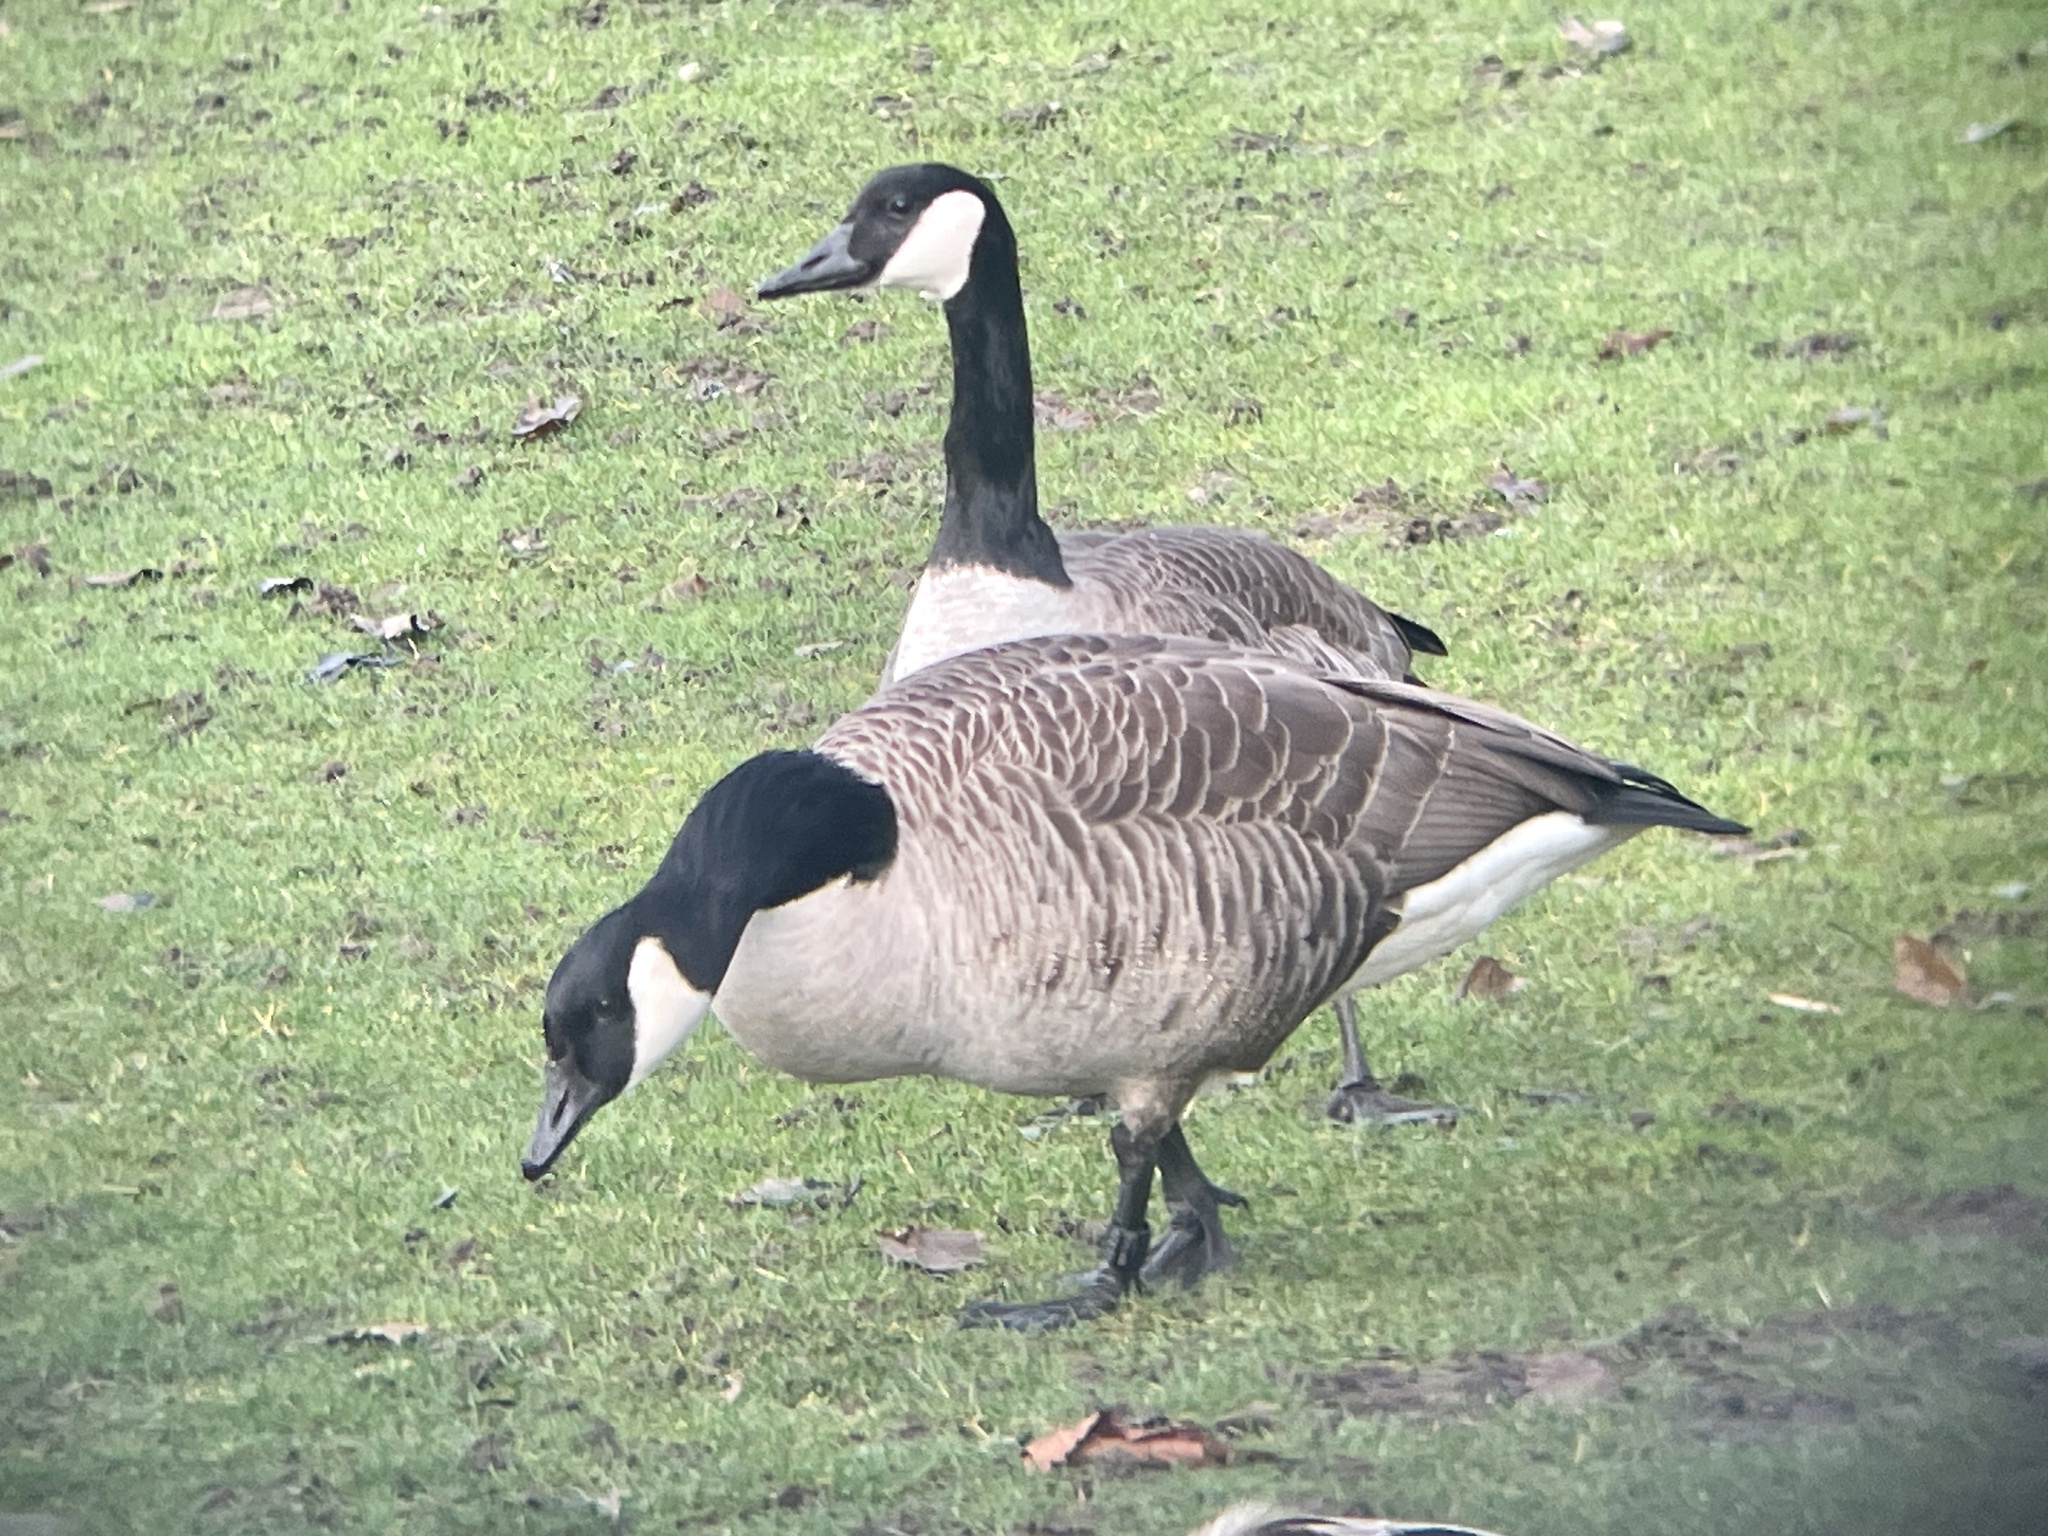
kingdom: Animalia
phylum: Chordata
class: Aves
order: Anseriformes
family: Anatidae
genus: Branta
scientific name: Branta canadensis
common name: Canada goose
